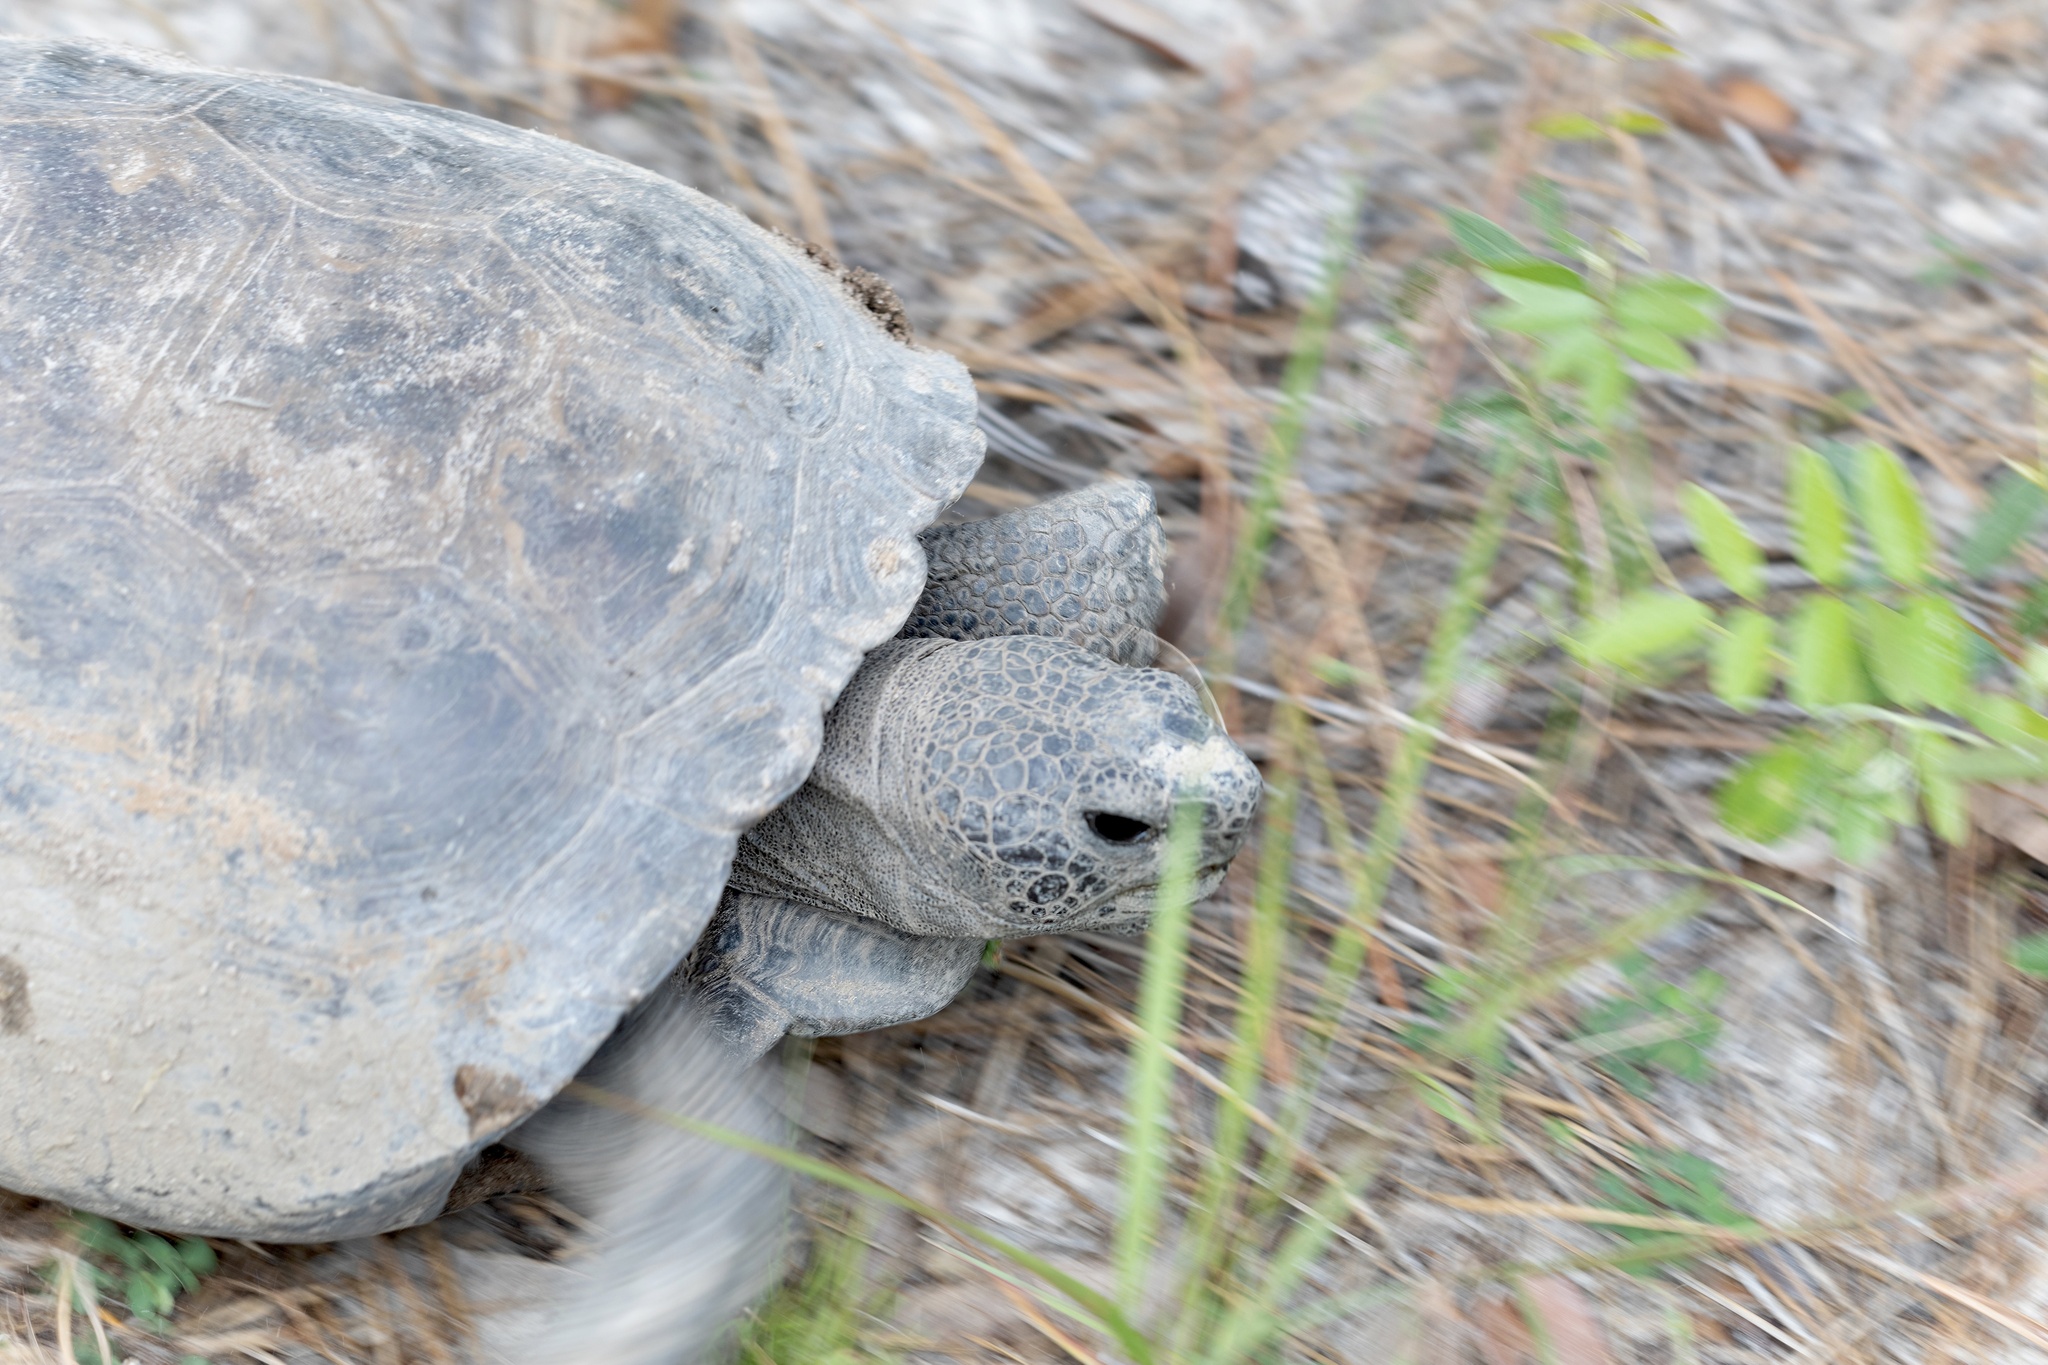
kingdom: Animalia
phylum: Chordata
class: Testudines
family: Testudinidae
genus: Gopherus
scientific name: Gopherus polyphemus
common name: Florida gopher tortoise
